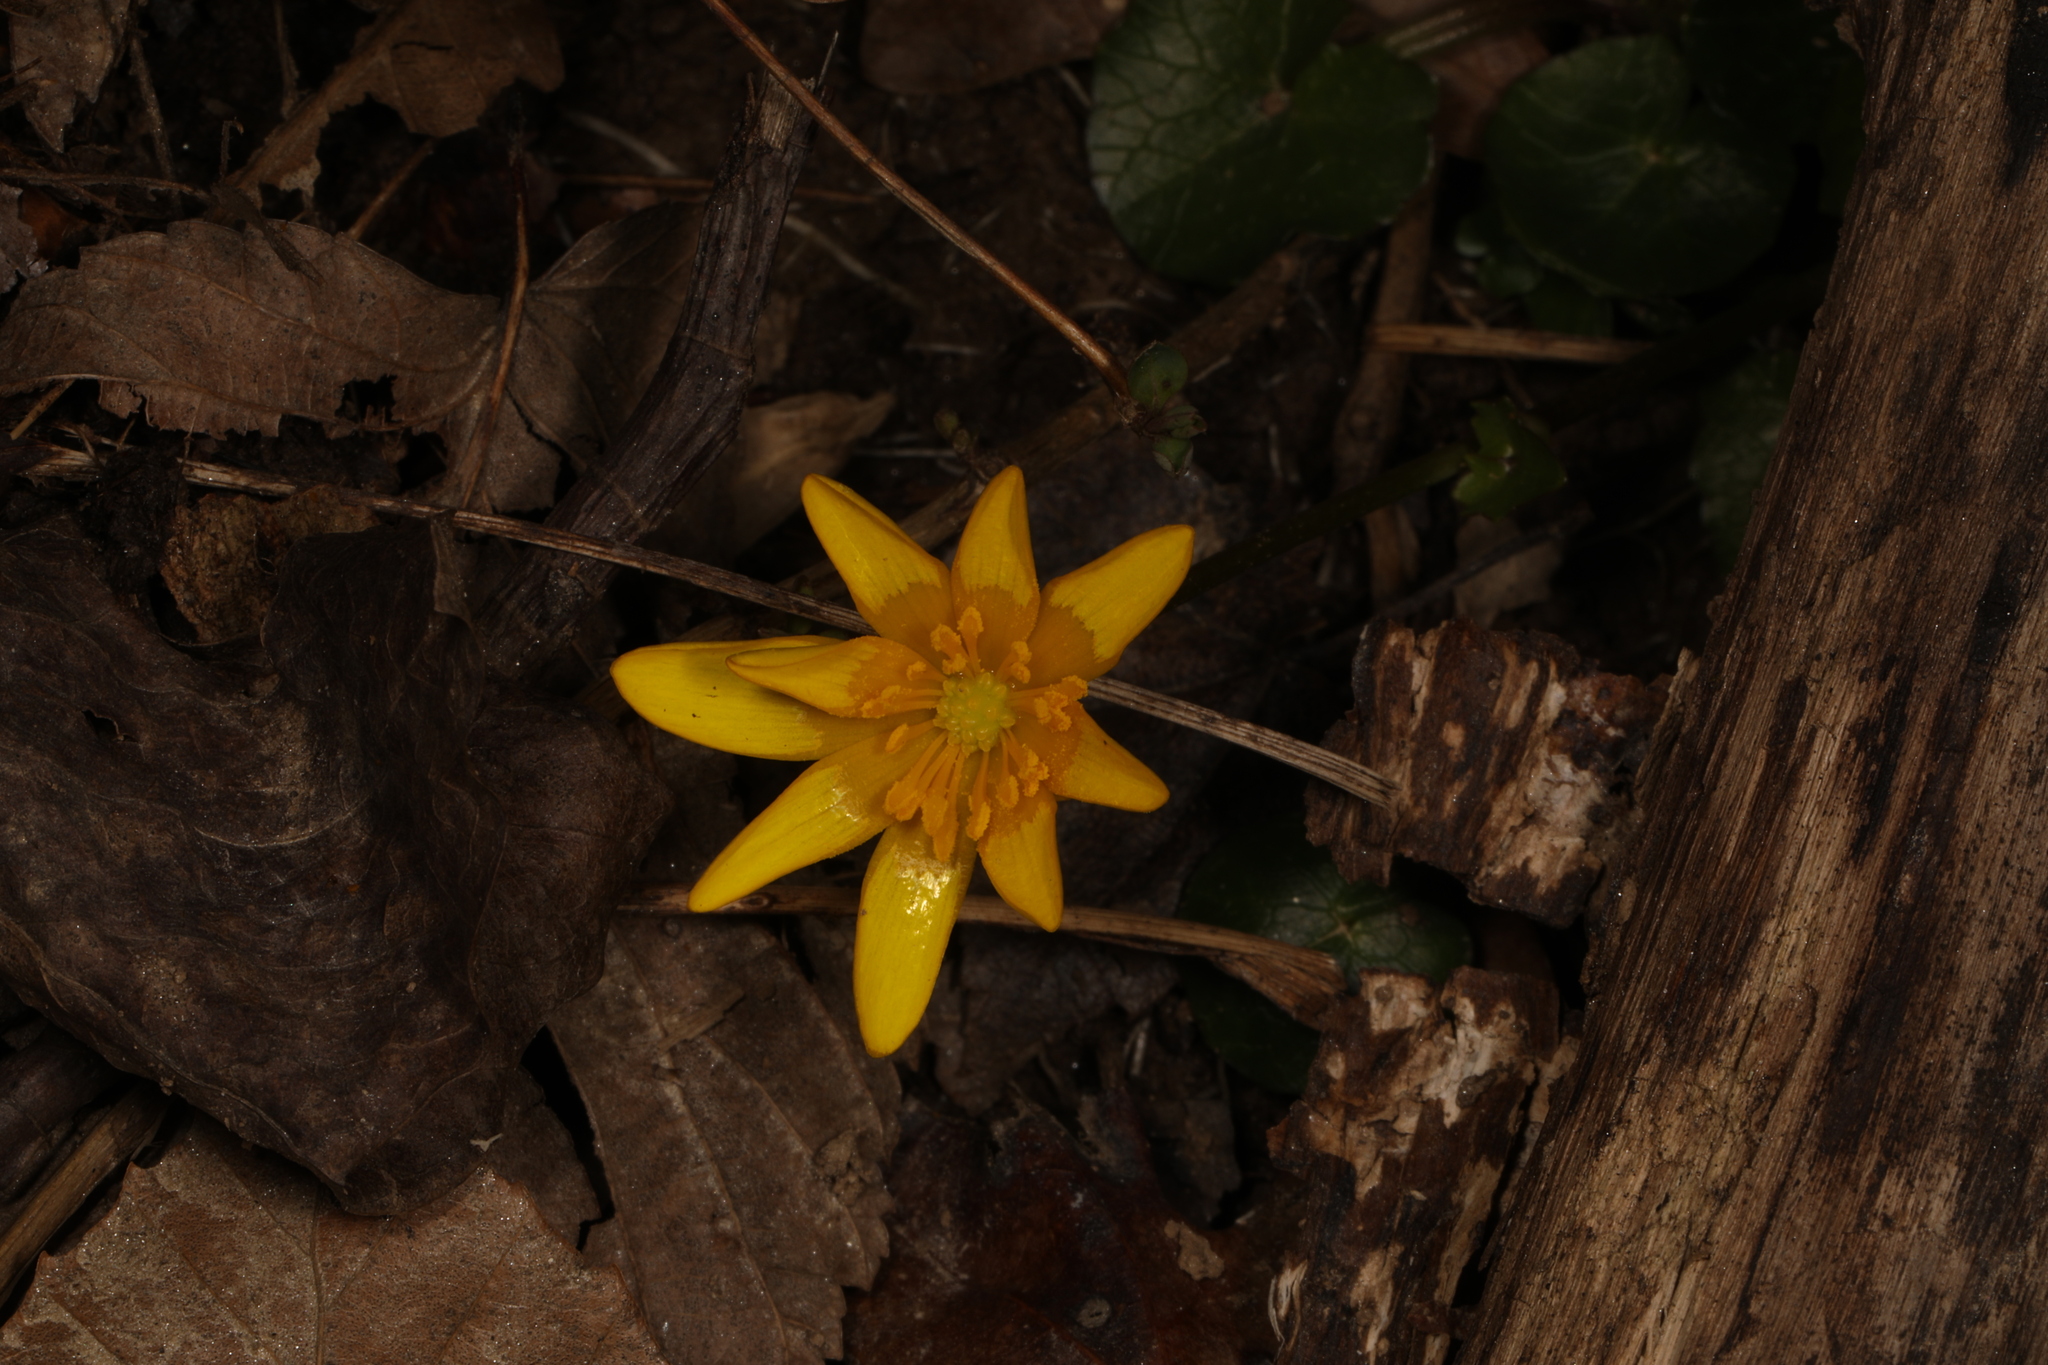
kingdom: Plantae
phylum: Tracheophyta
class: Magnoliopsida
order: Ranunculales
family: Ranunculaceae
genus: Ficaria
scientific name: Ficaria verna
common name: Lesser celandine
